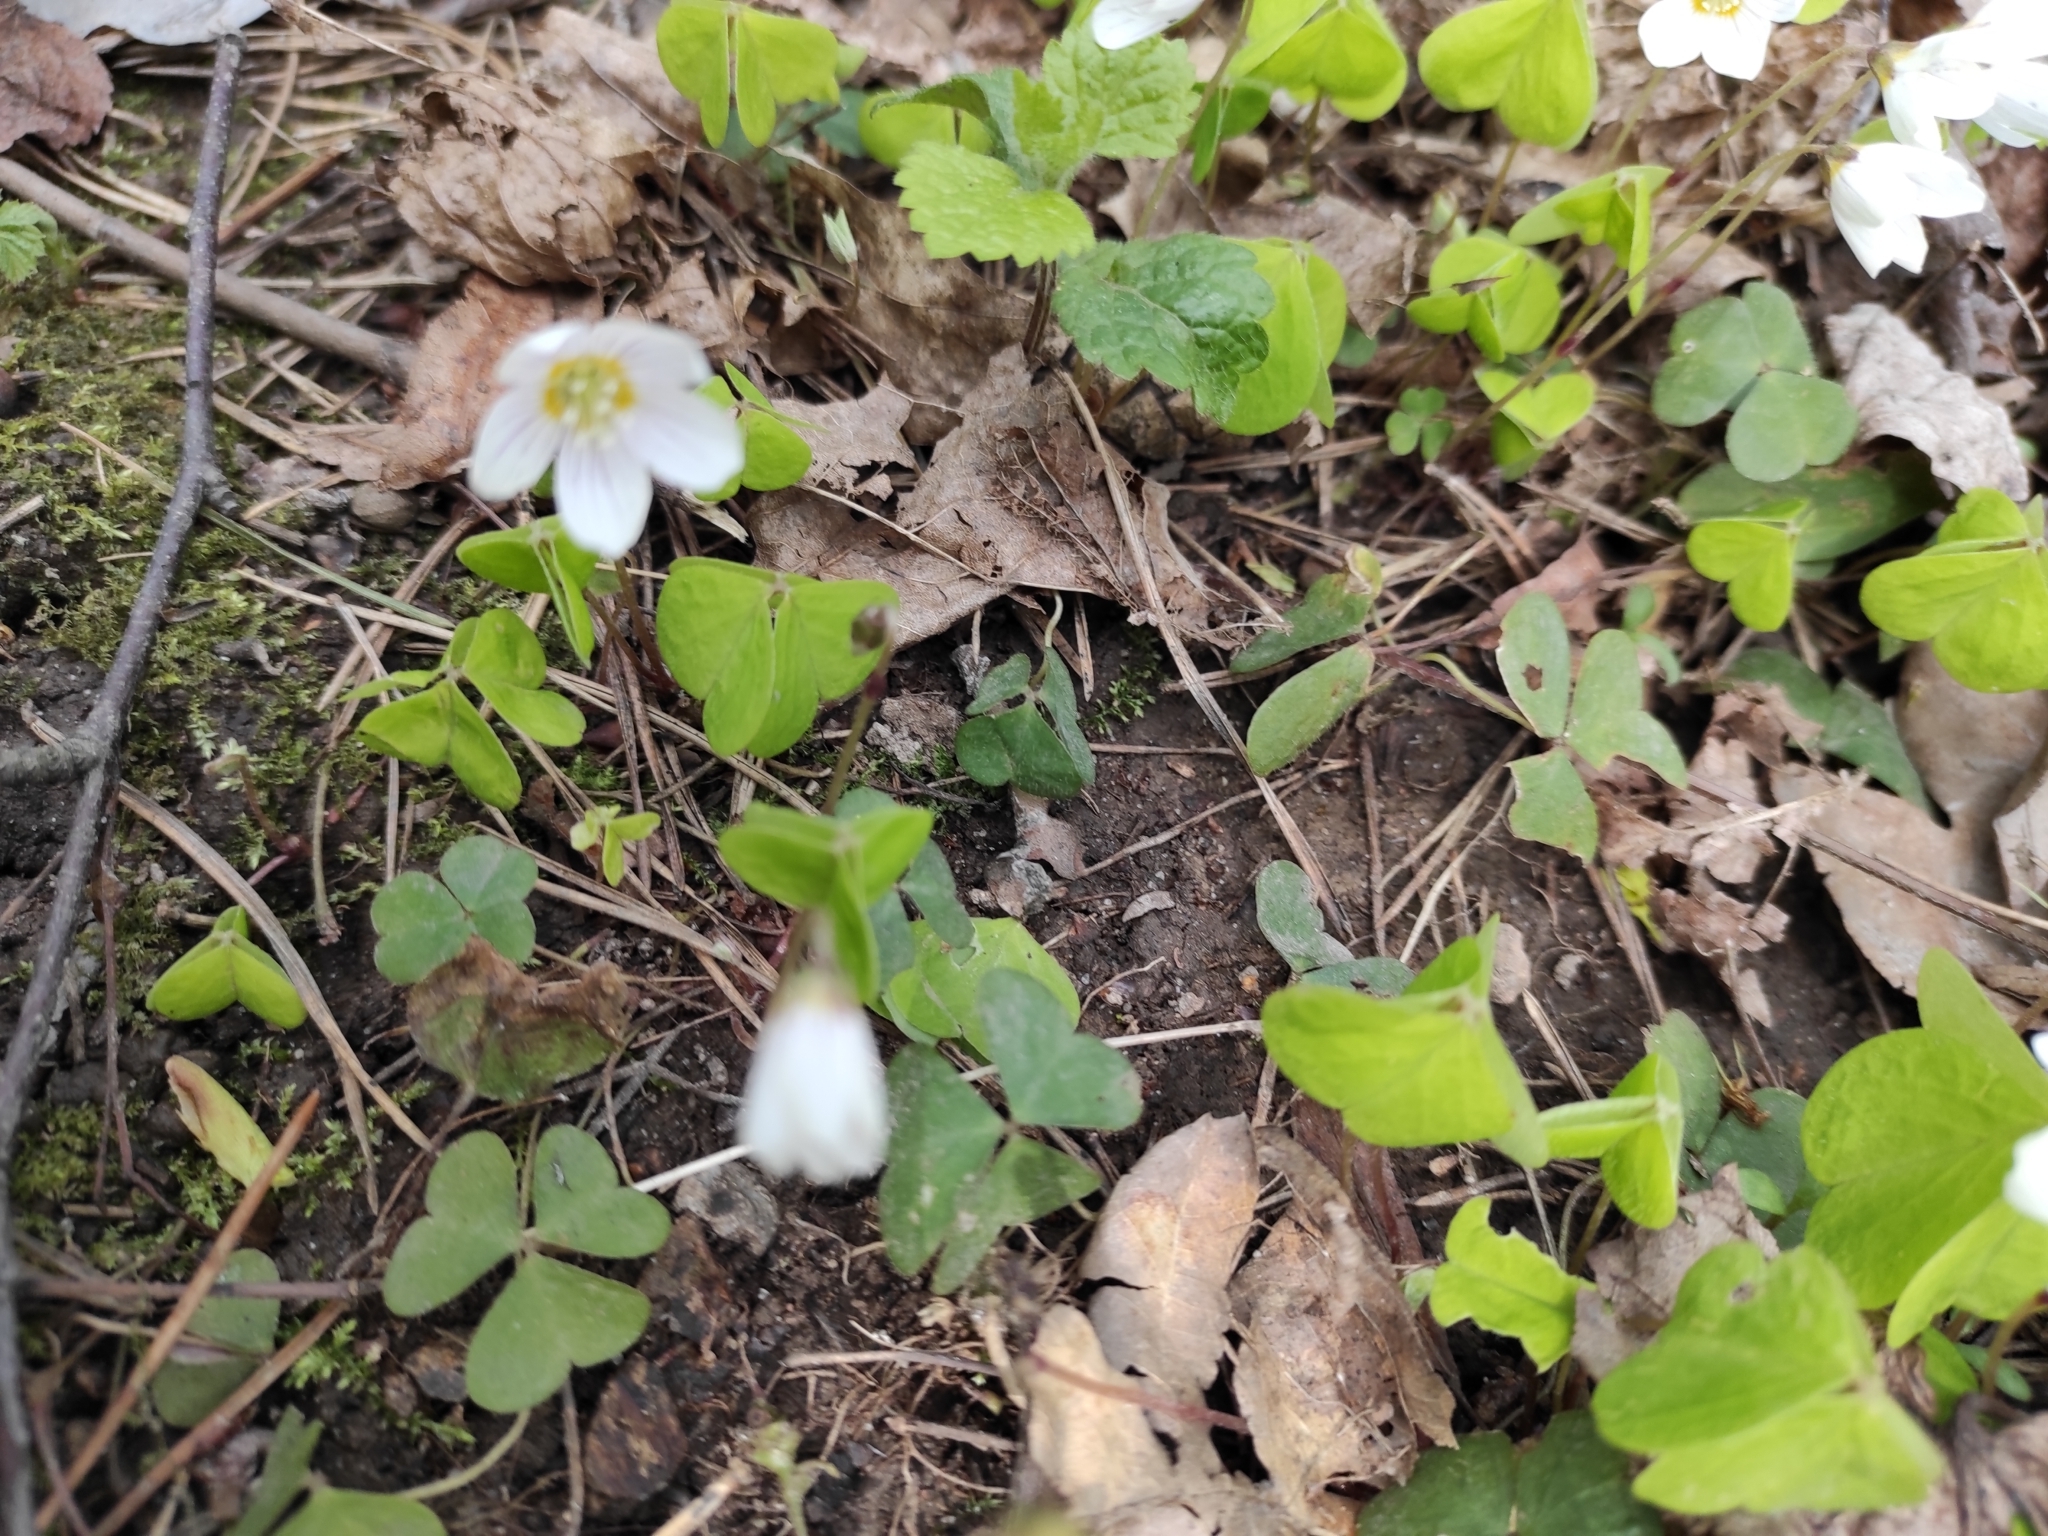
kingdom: Plantae
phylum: Tracheophyta
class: Magnoliopsida
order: Oxalidales
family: Oxalidaceae
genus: Oxalis
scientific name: Oxalis acetosella
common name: Wood-sorrel
